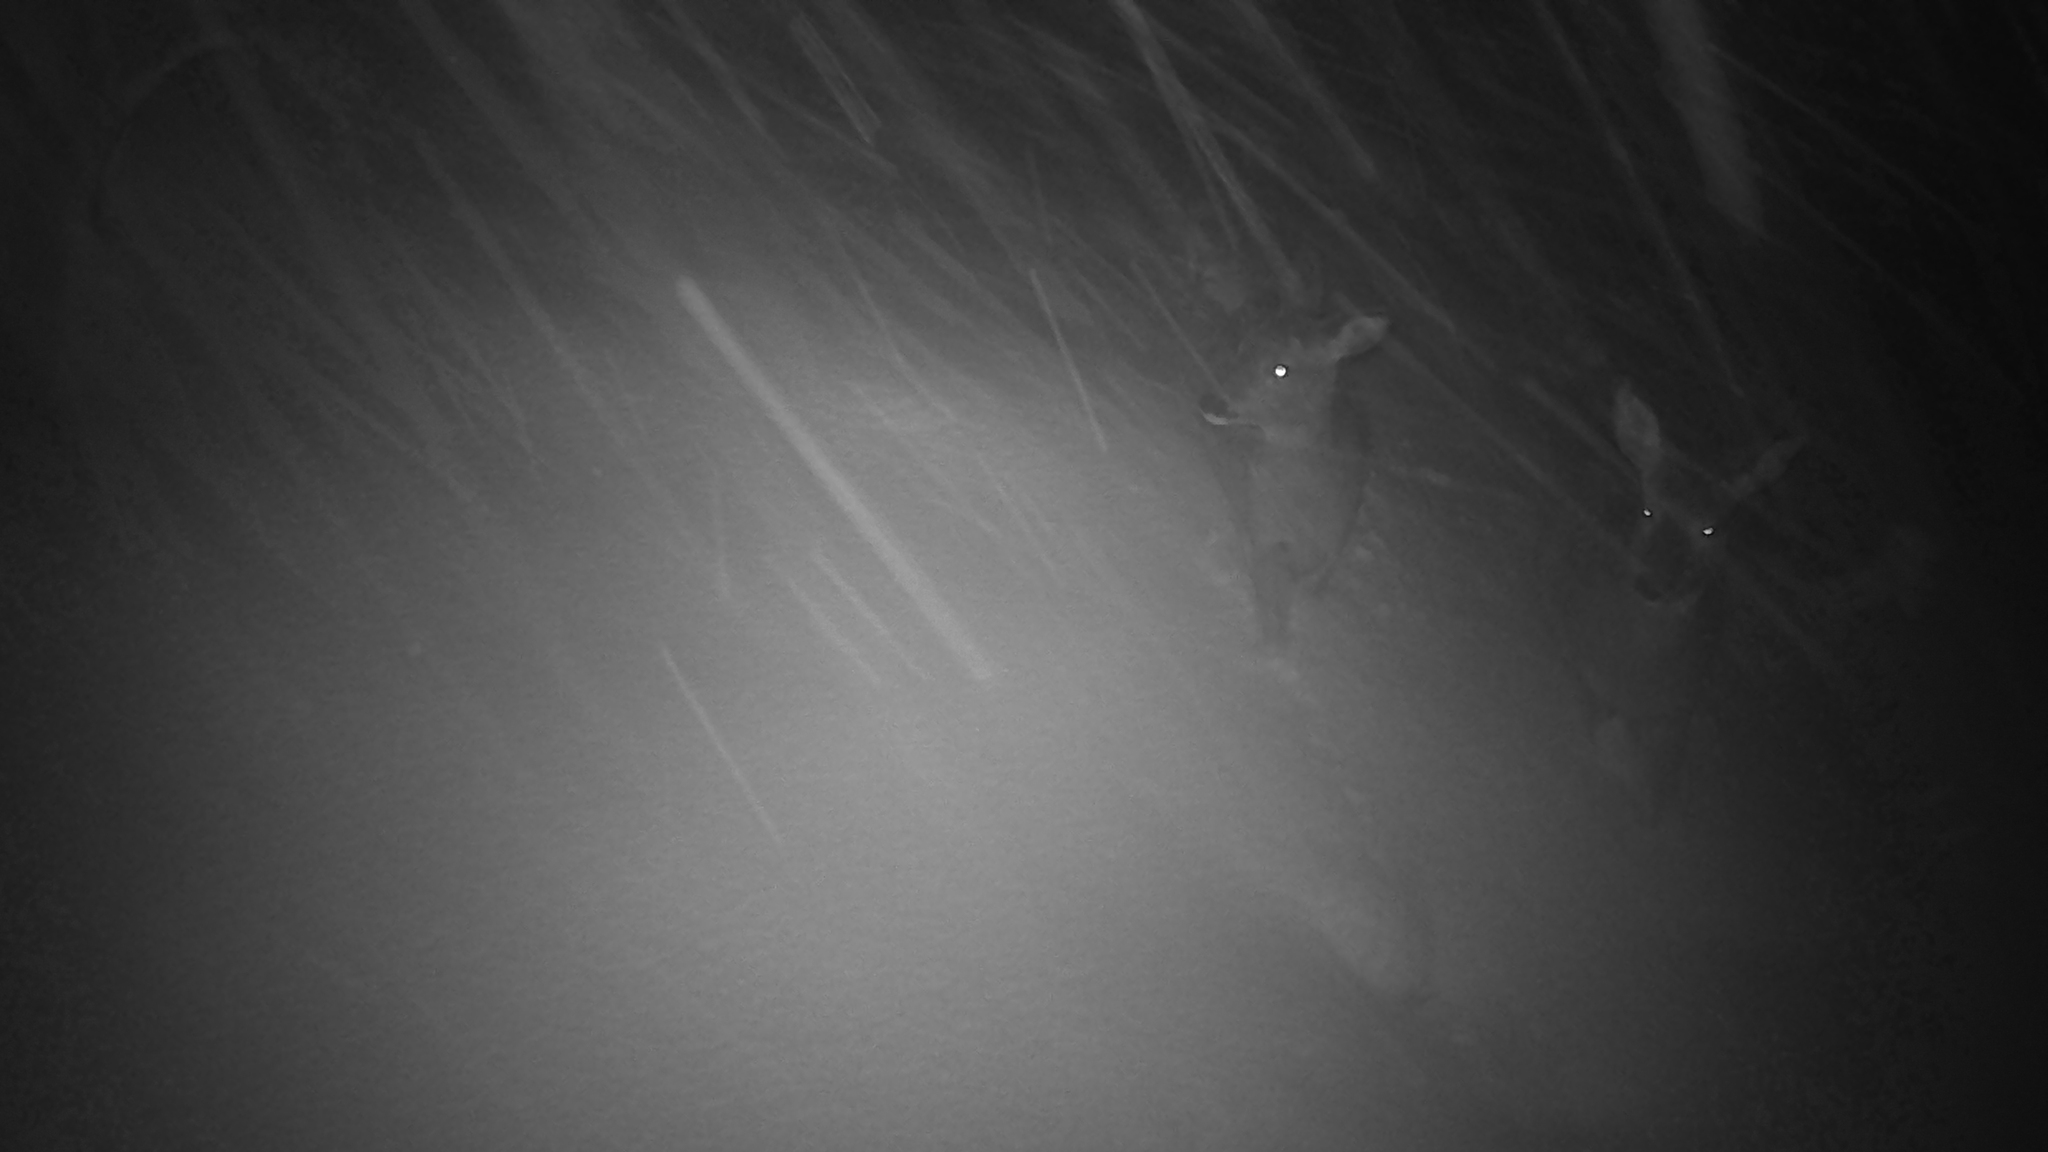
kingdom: Animalia
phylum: Chordata
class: Mammalia
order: Artiodactyla
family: Cervidae
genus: Capreolus
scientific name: Capreolus capreolus
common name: Western roe deer
